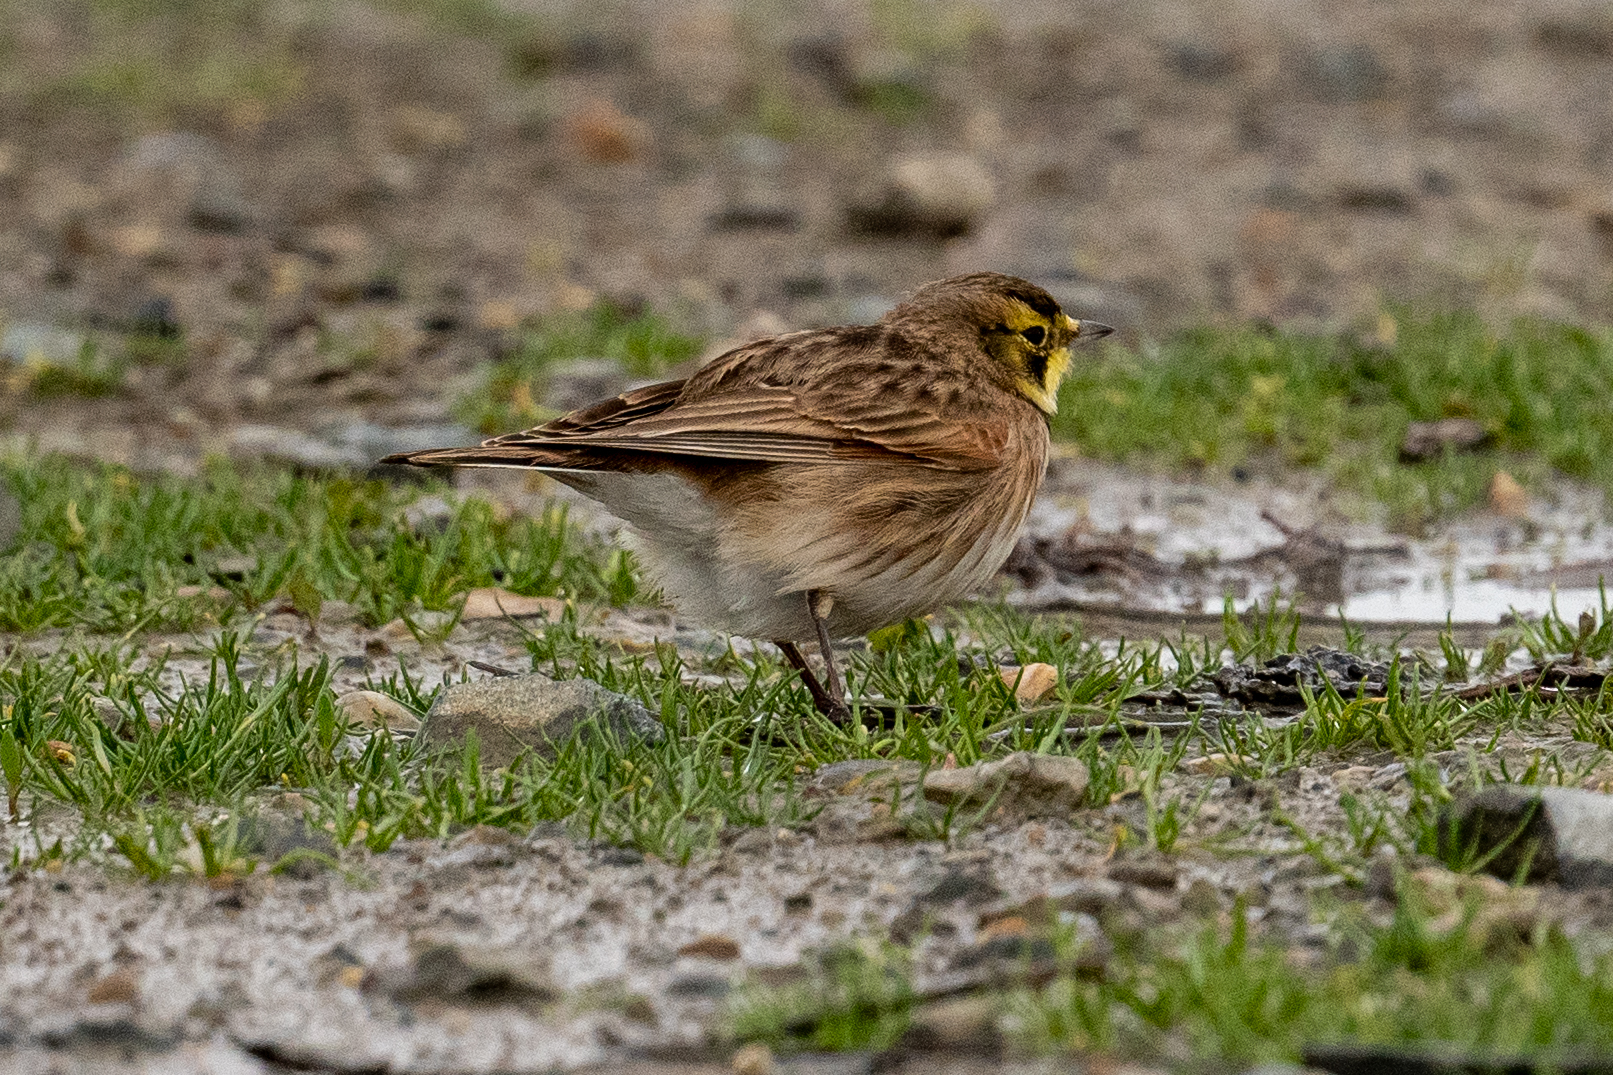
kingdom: Animalia
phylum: Chordata
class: Aves
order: Passeriformes
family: Alaudidae
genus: Eremophila
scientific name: Eremophila alpestris
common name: Horned lark
